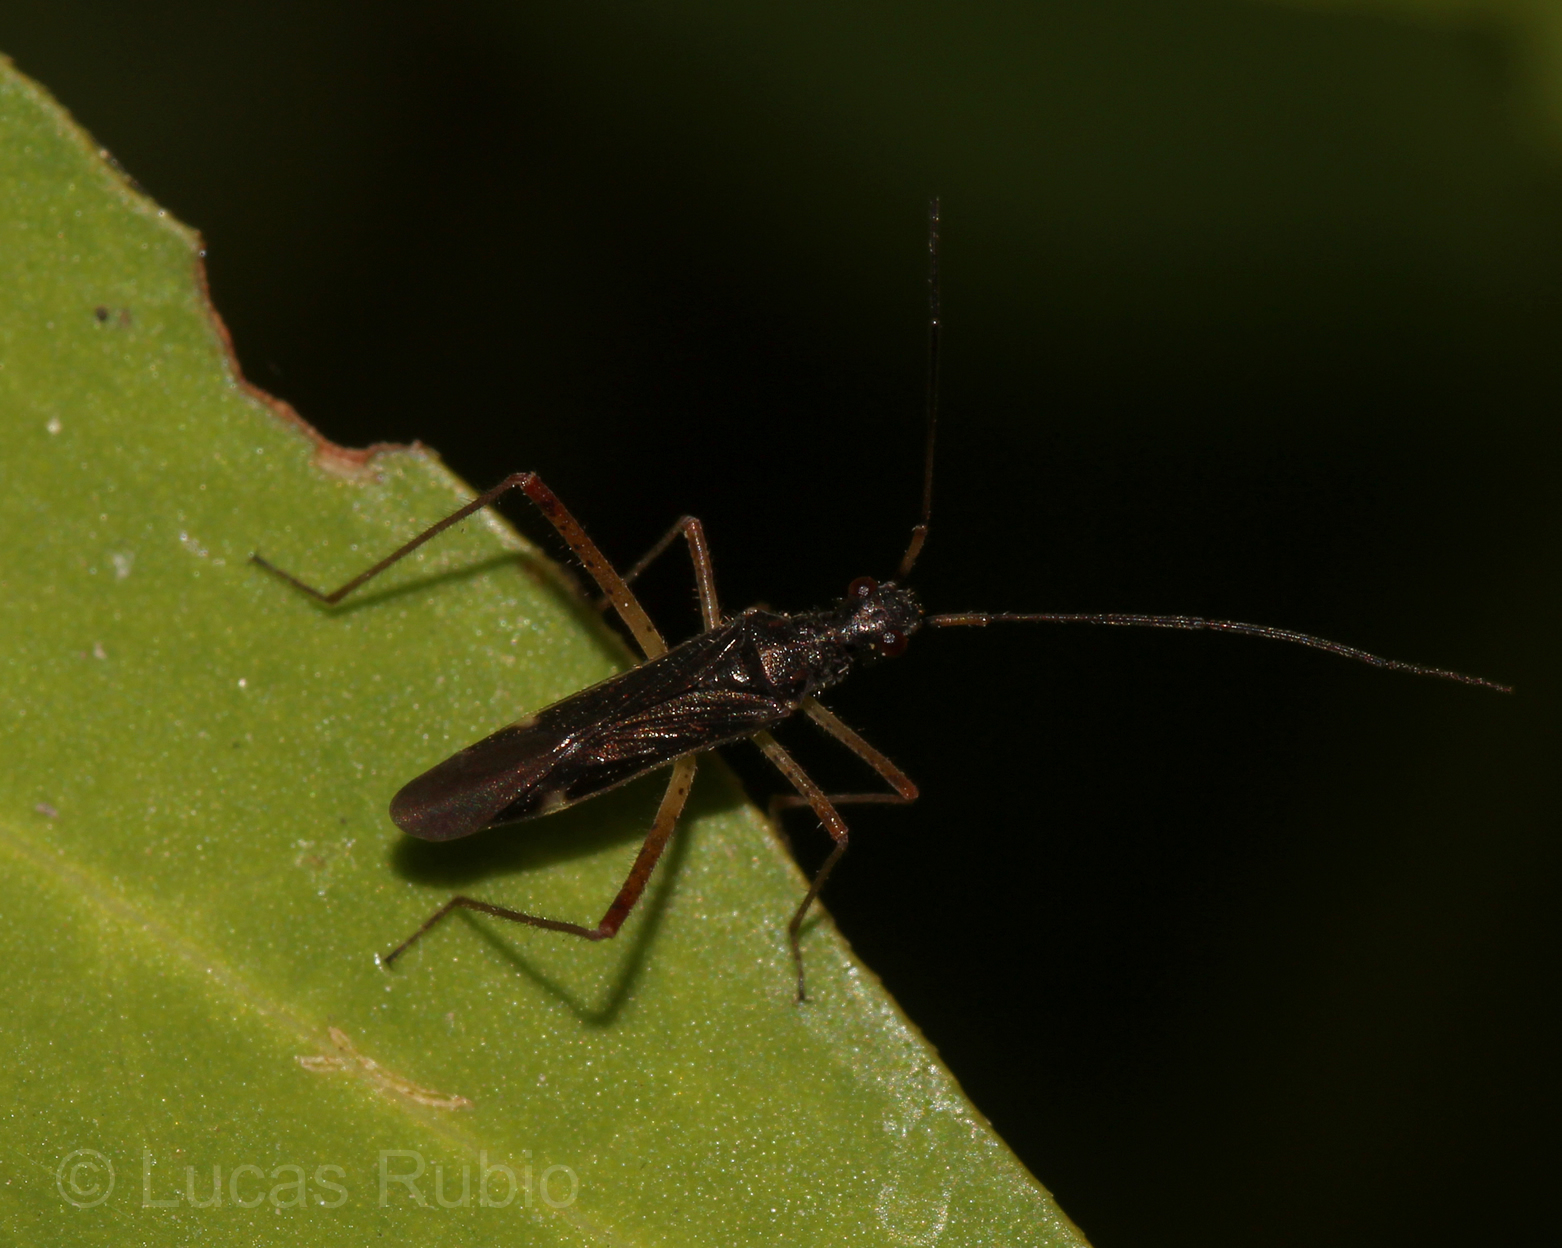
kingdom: Animalia
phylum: Arthropoda
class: Insecta
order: Hemiptera
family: Miridae
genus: Collaria
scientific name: Collaria scenica
